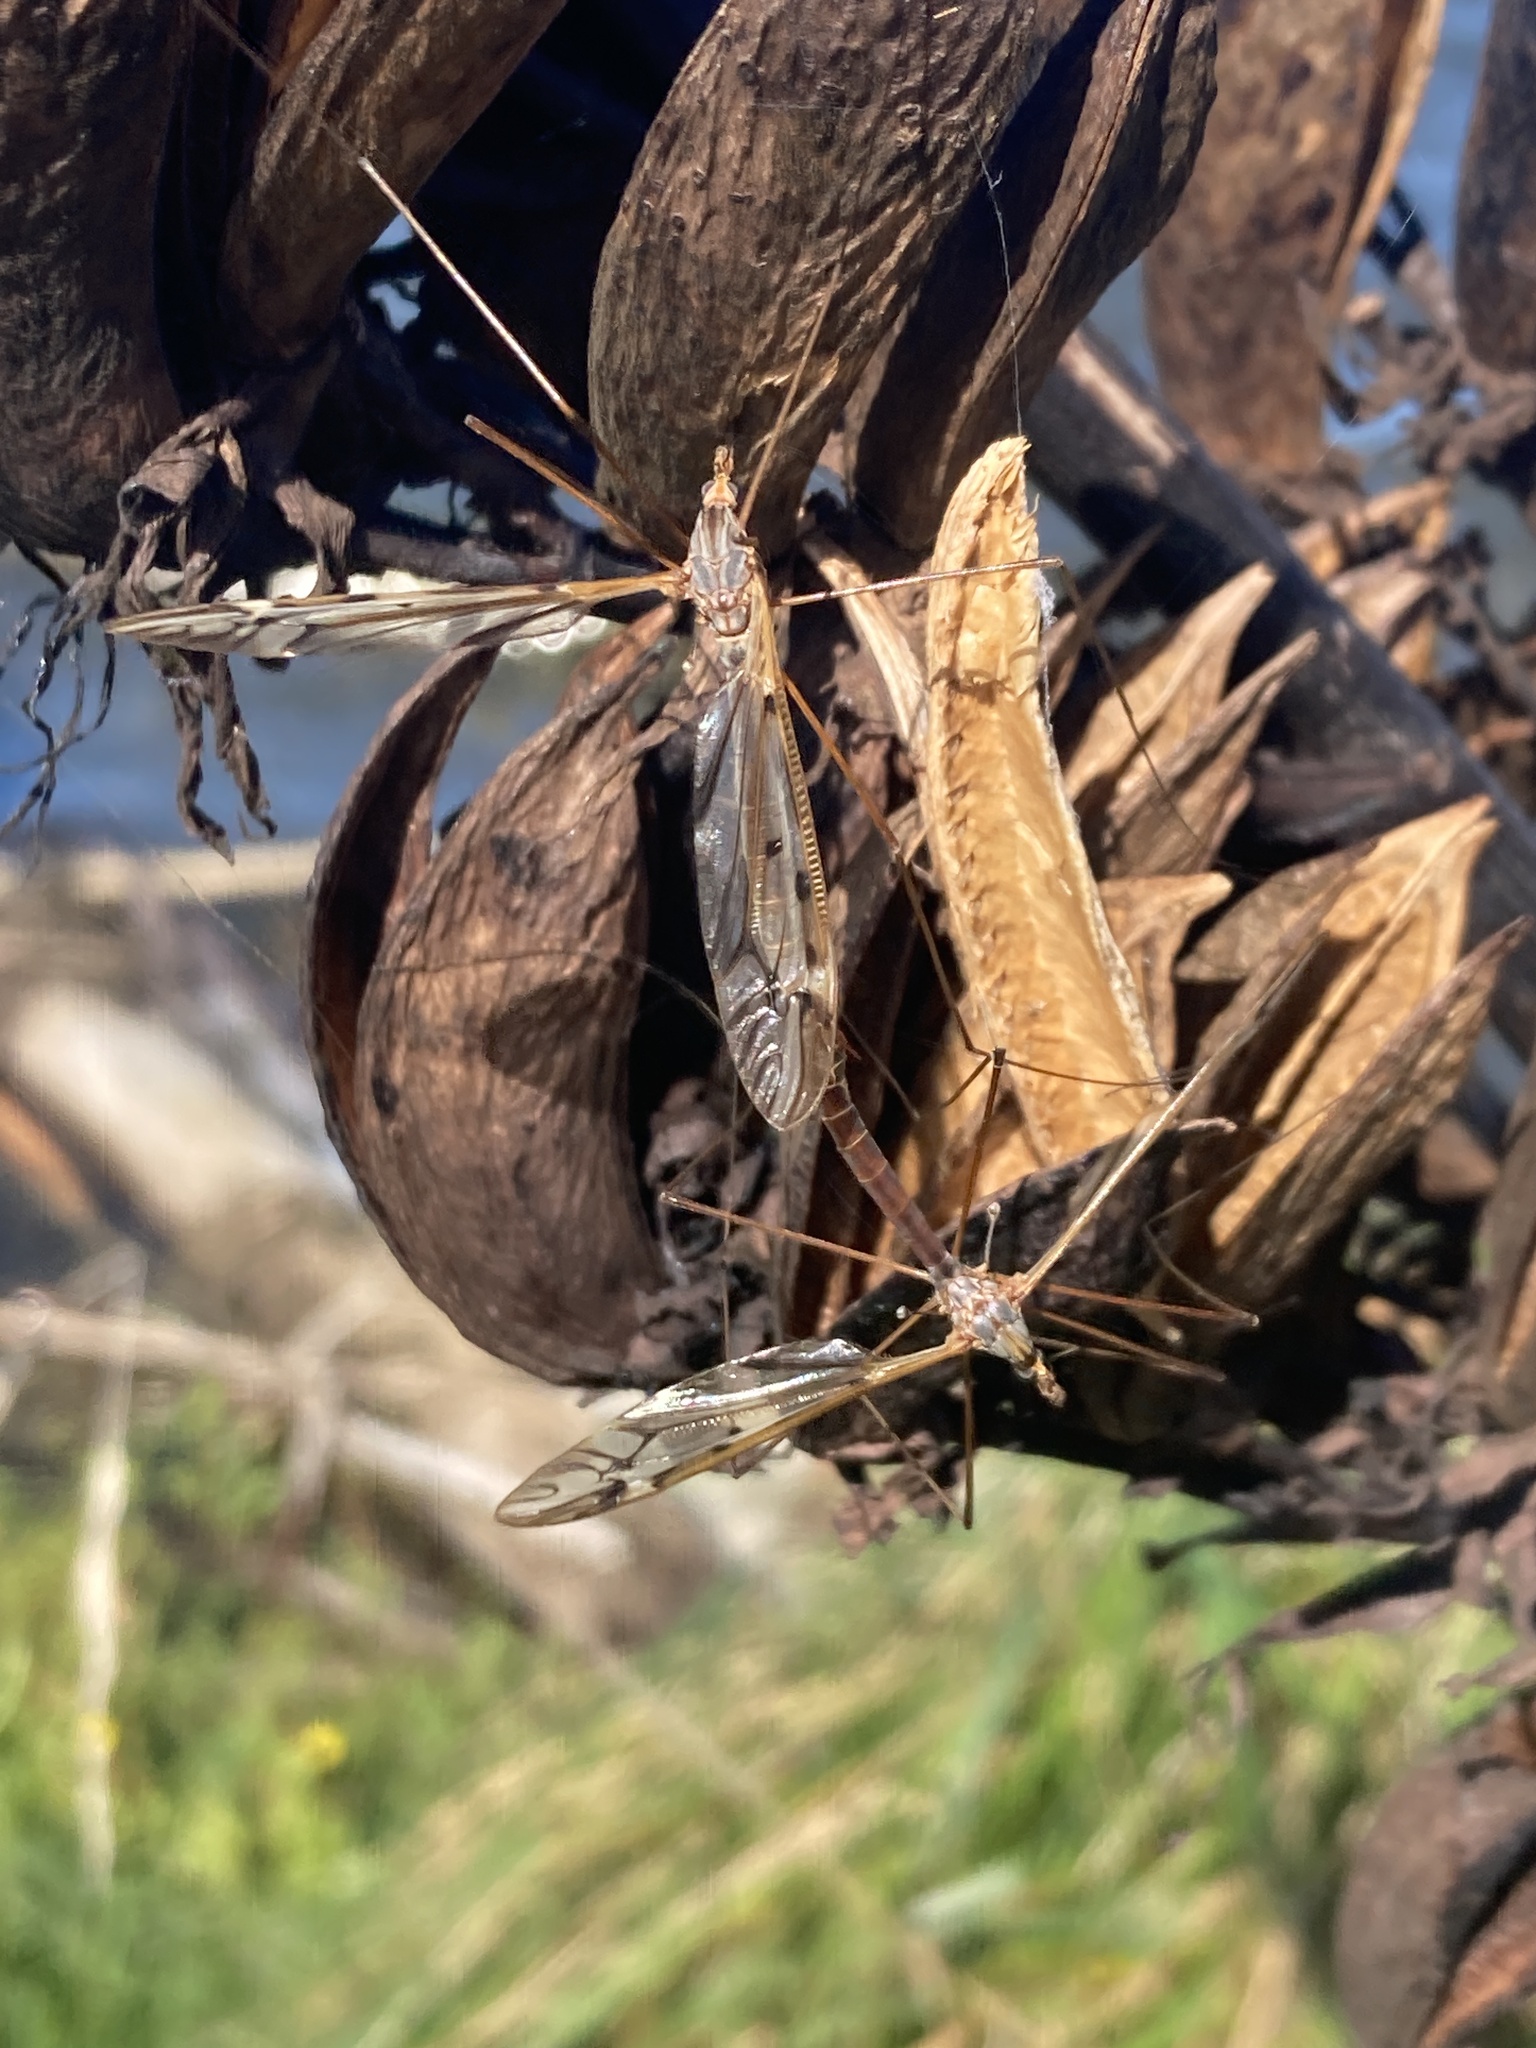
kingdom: Animalia
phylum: Arthropoda
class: Insecta
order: Diptera
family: Tipulidae
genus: Zelandotipula
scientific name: Zelandotipula novarae
